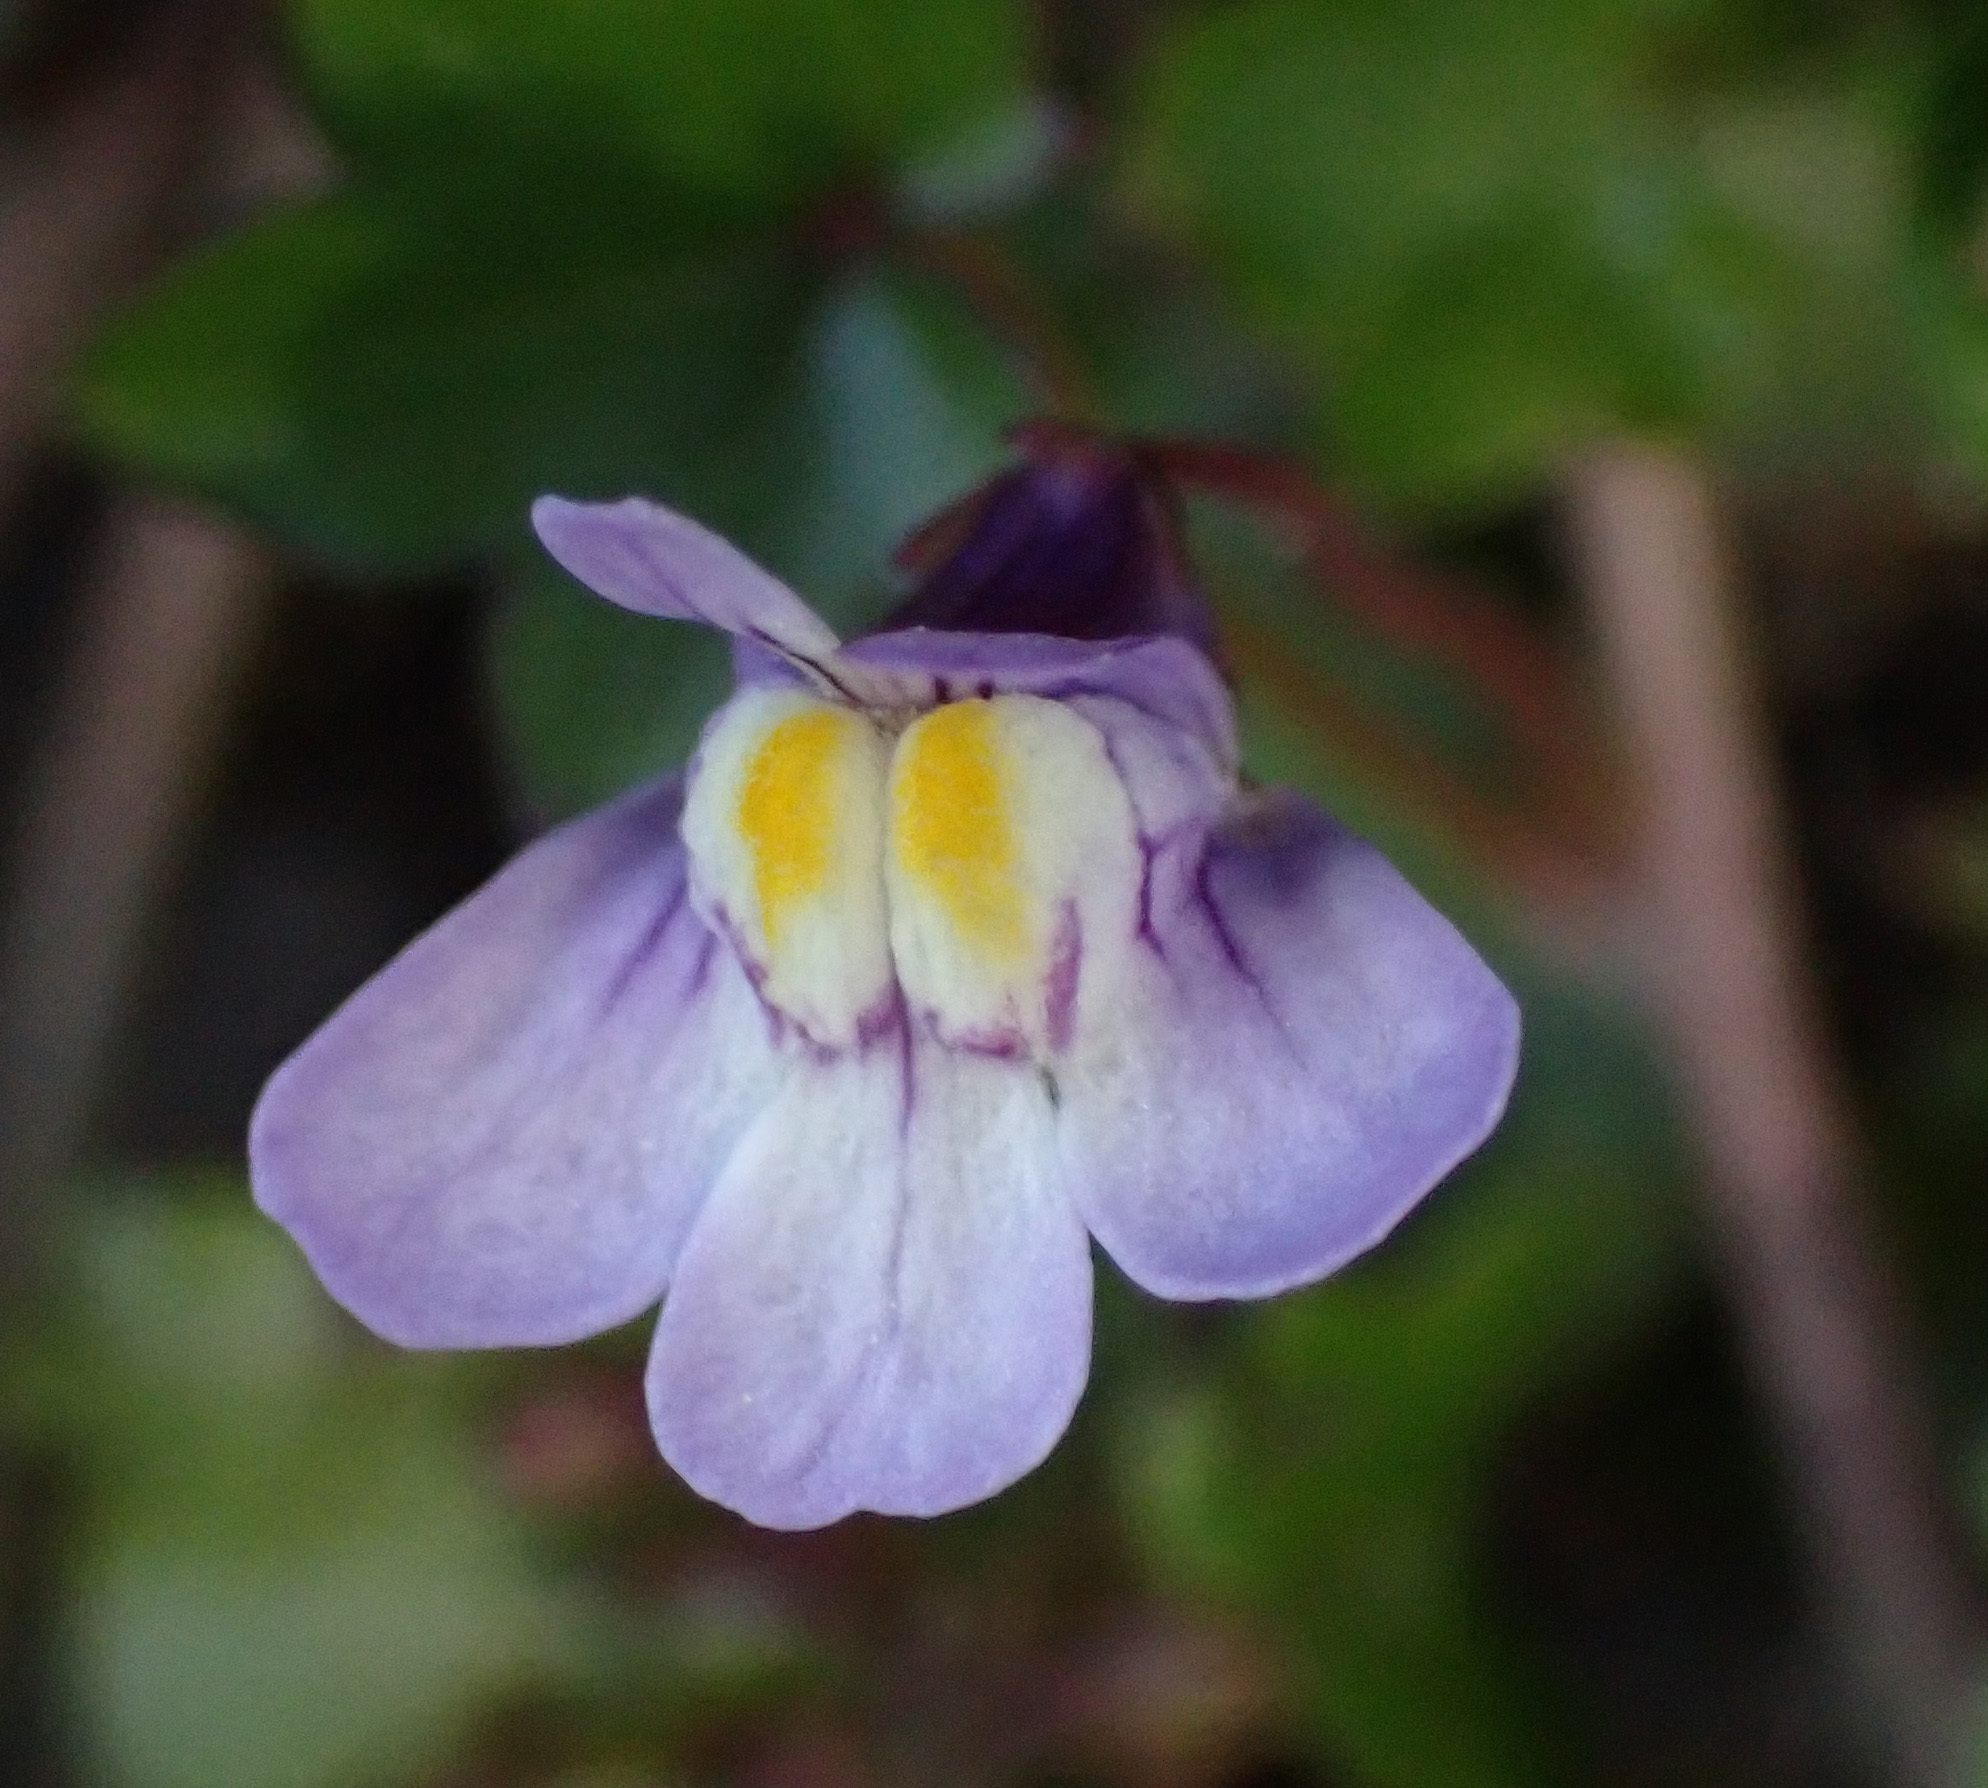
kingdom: Plantae
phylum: Tracheophyta
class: Magnoliopsida
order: Lamiales
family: Plantaginaceae
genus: Cymbalaria
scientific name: Cymbalaria muralis
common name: Ivy-leaved toadflax
